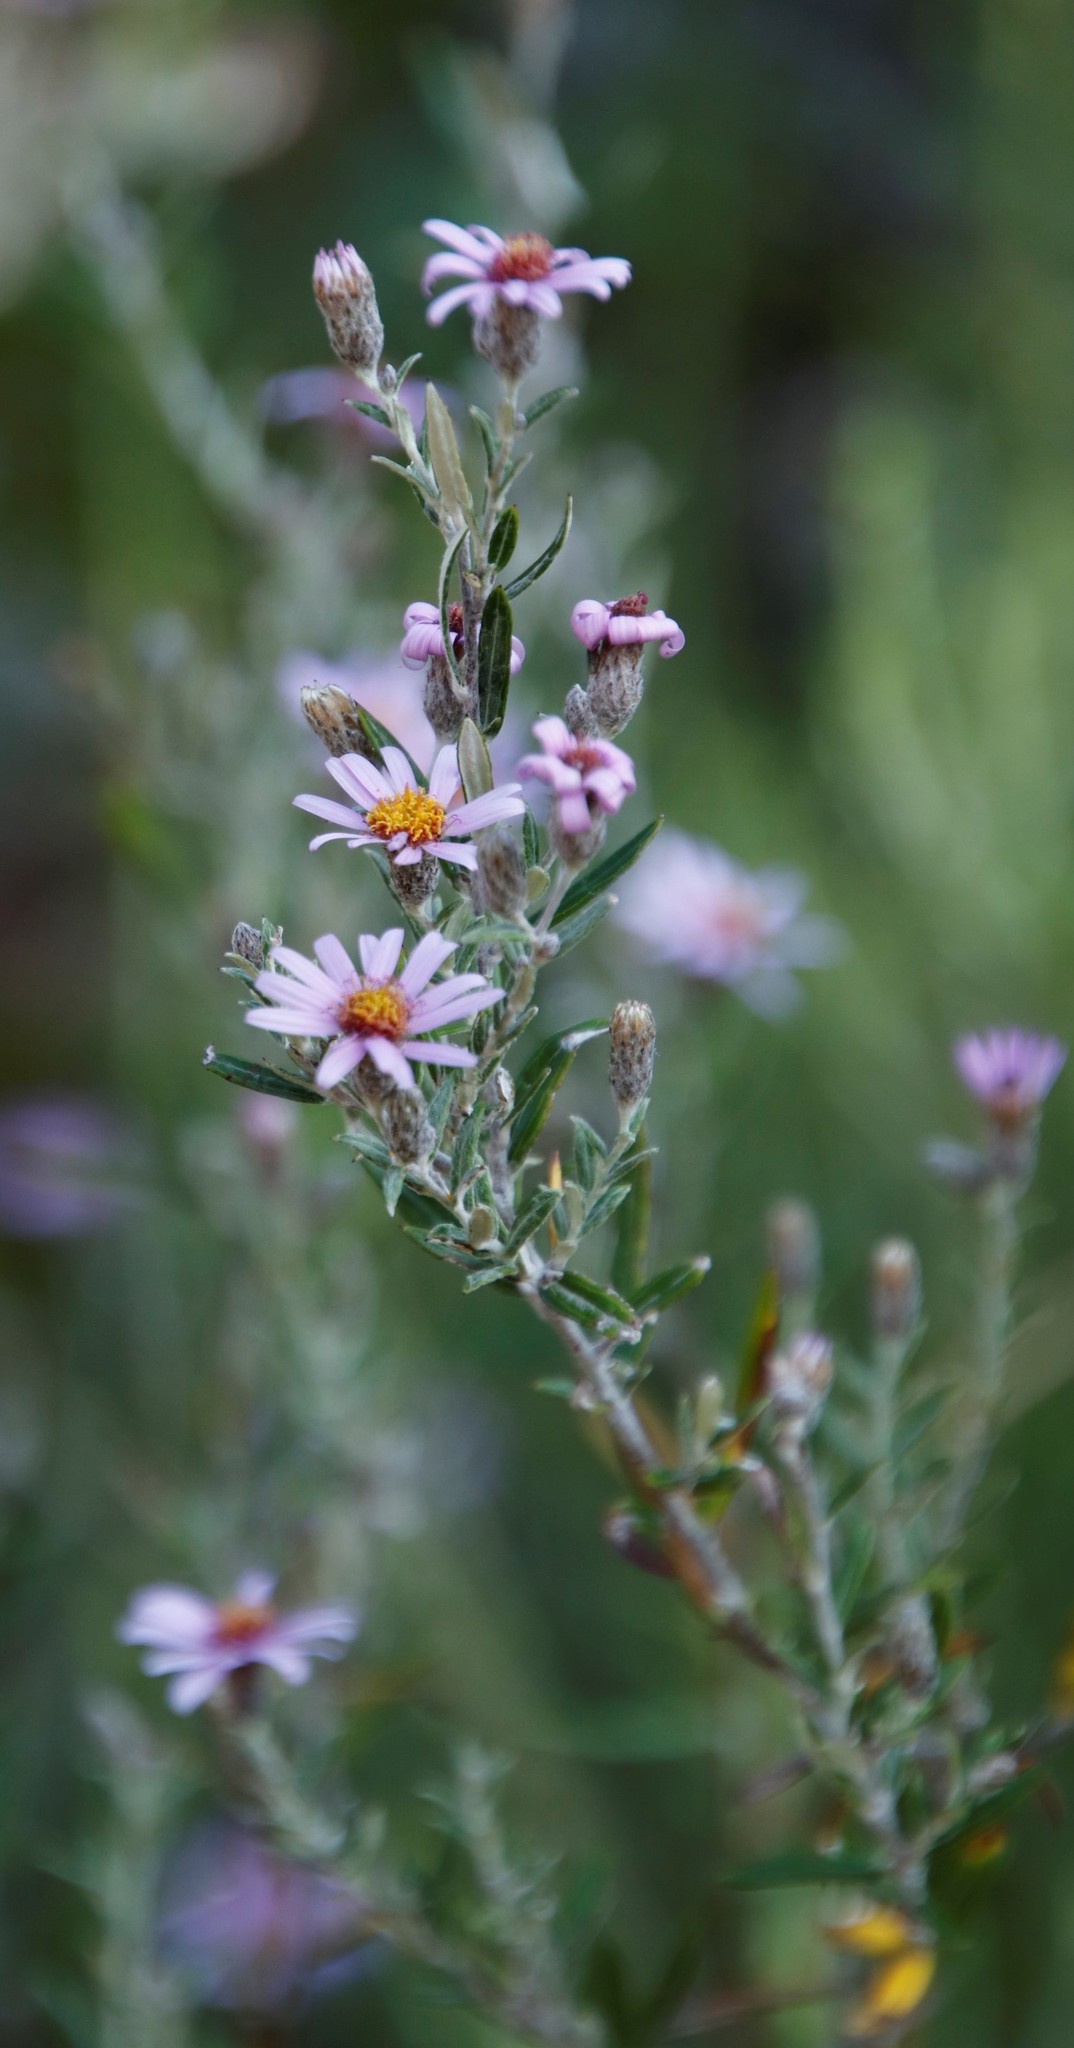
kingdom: Plantae
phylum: Tracheophyta
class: Magnoliopsida
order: Asterales
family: Asteraceae
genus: Athrixia
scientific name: Athrixia phylicoides
